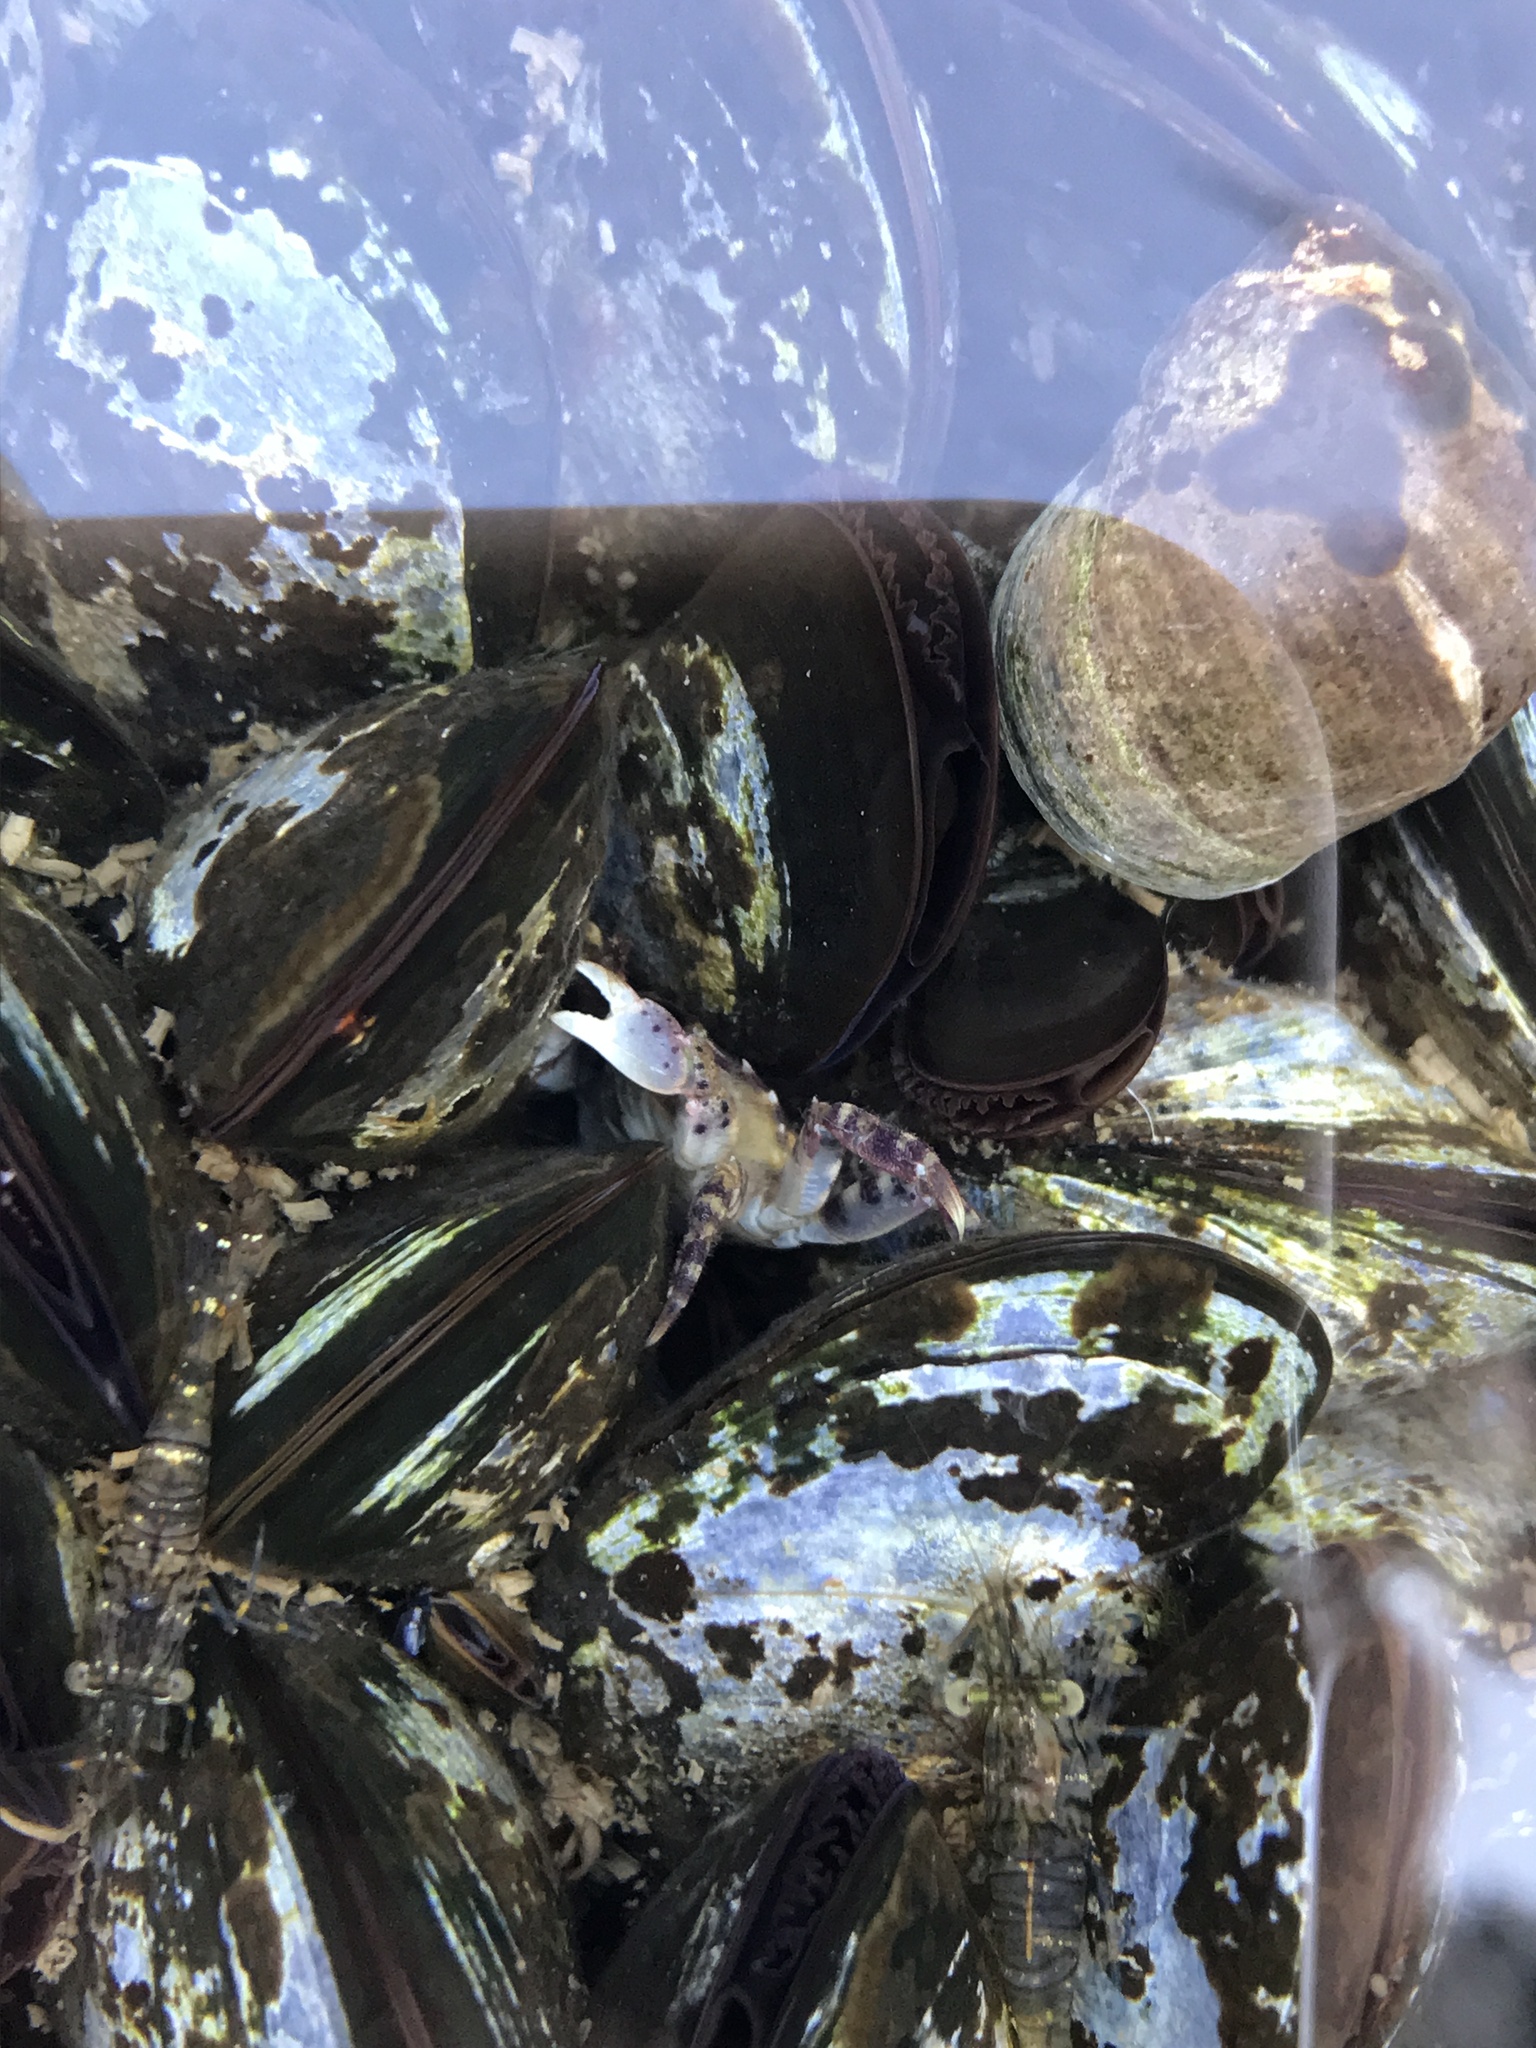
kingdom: Animalia
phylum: Arthropoda
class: Malacostraca
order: Decapoda
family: Varunidae
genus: Hemigrapsus
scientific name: Hemigrapsus sanguineus
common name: Asian shore crab
